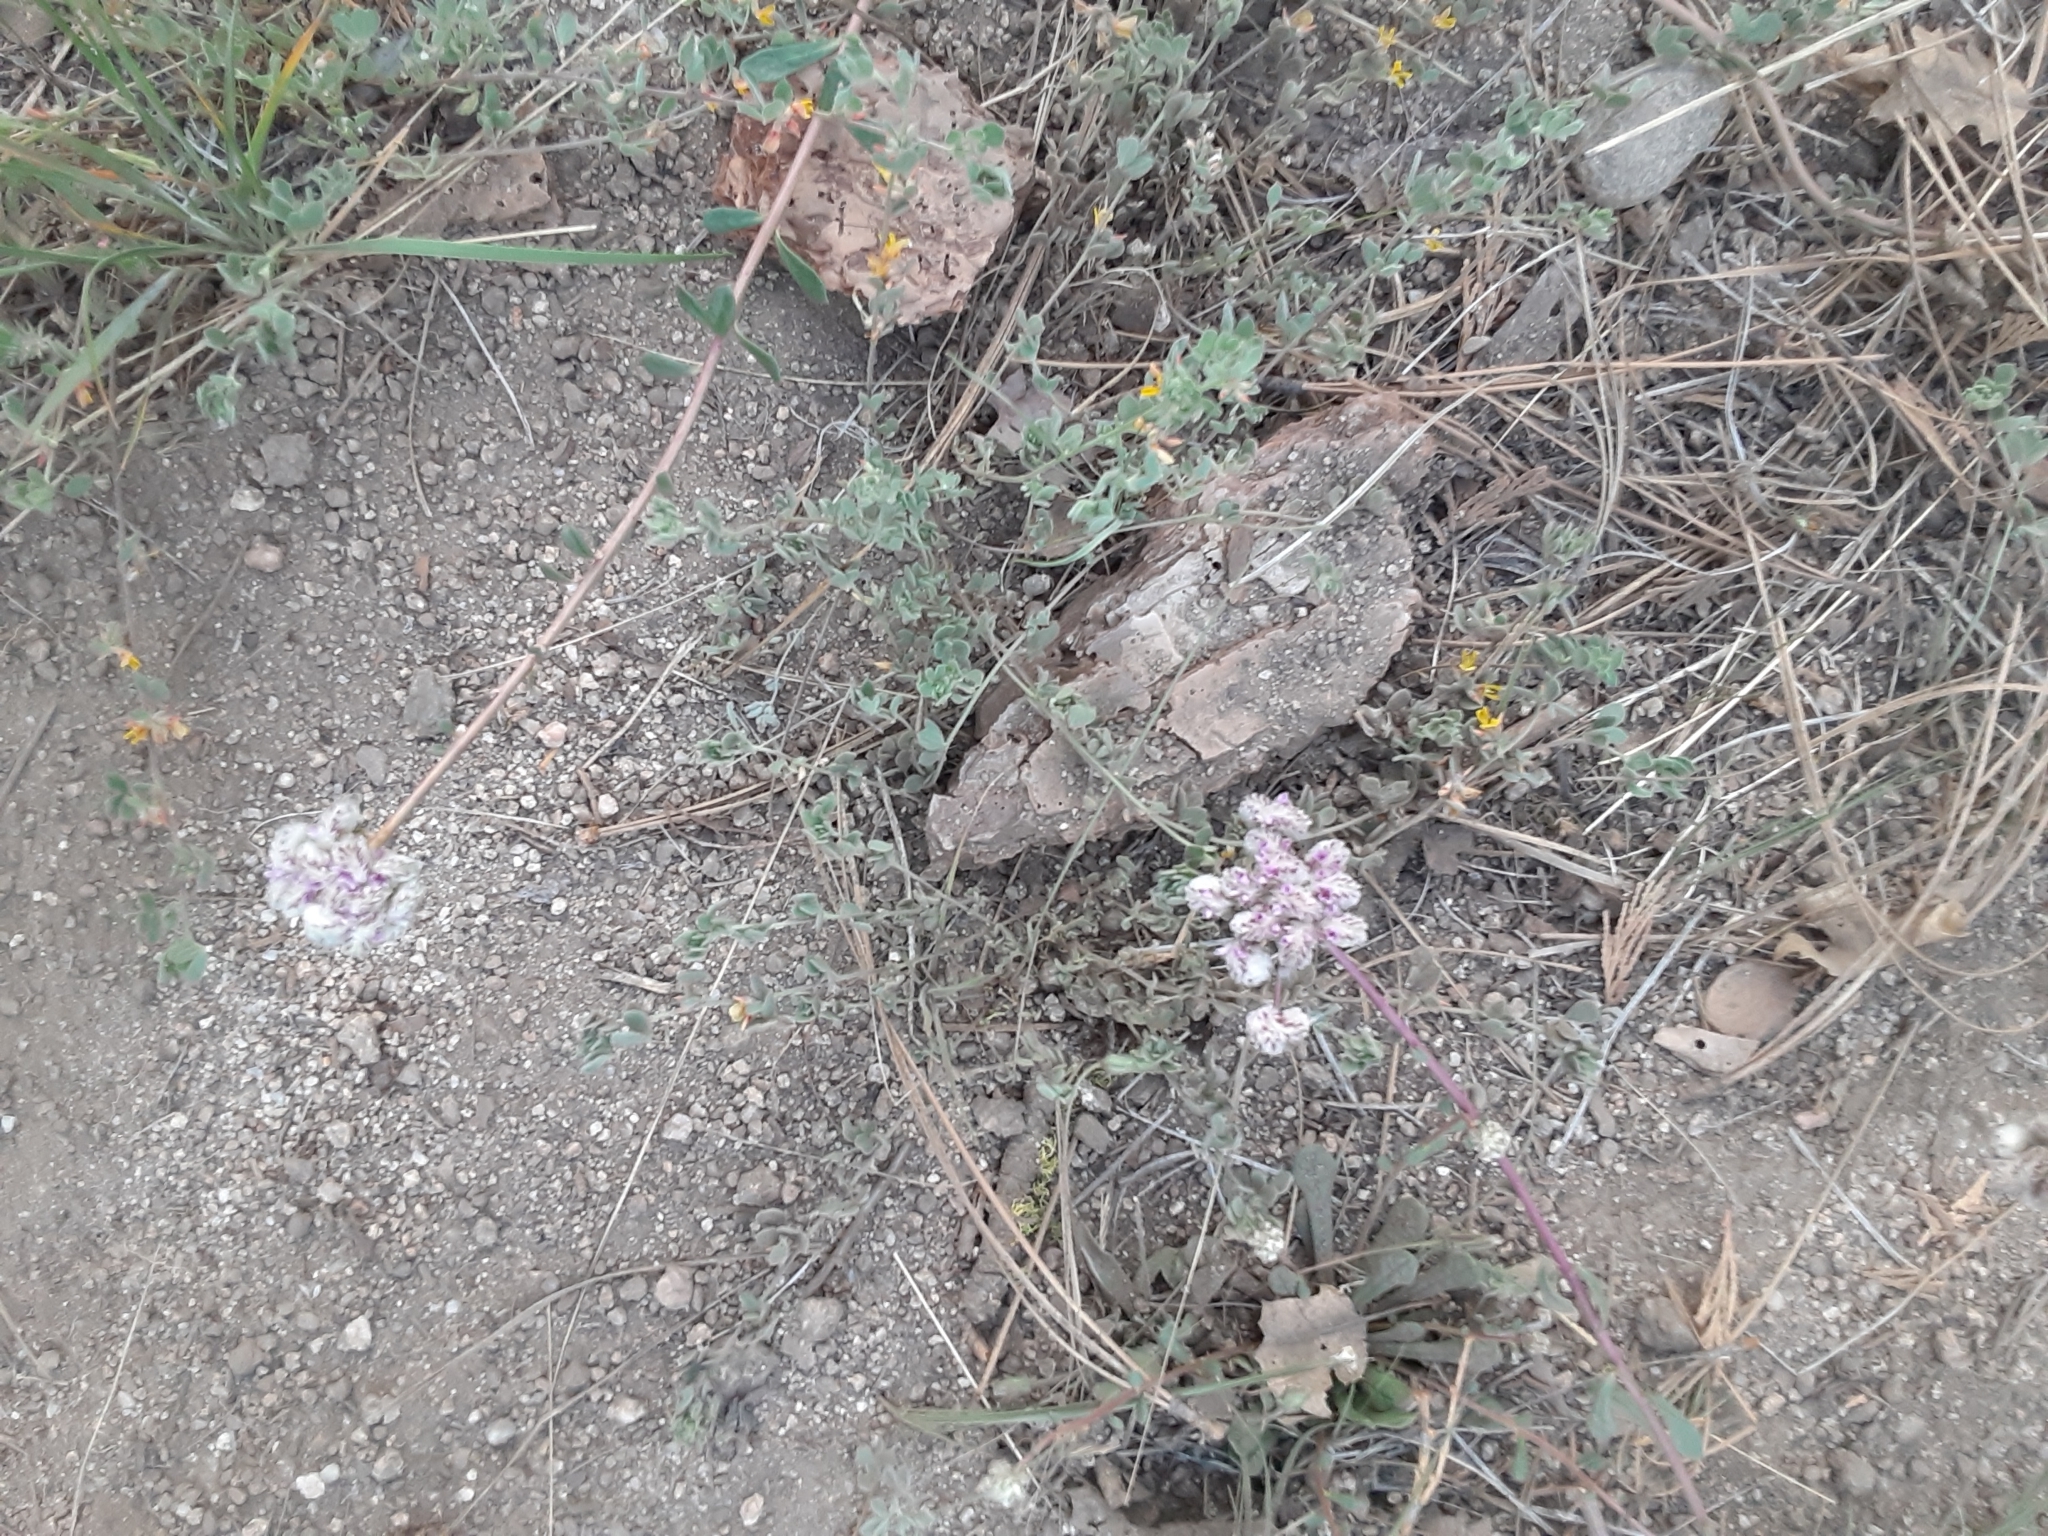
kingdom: Plantae
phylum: Tracheophyta
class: Magnoliopsida
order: Caryophyllales
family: Montiaceae
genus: Calyptridium
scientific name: Calyptridium monospermum
